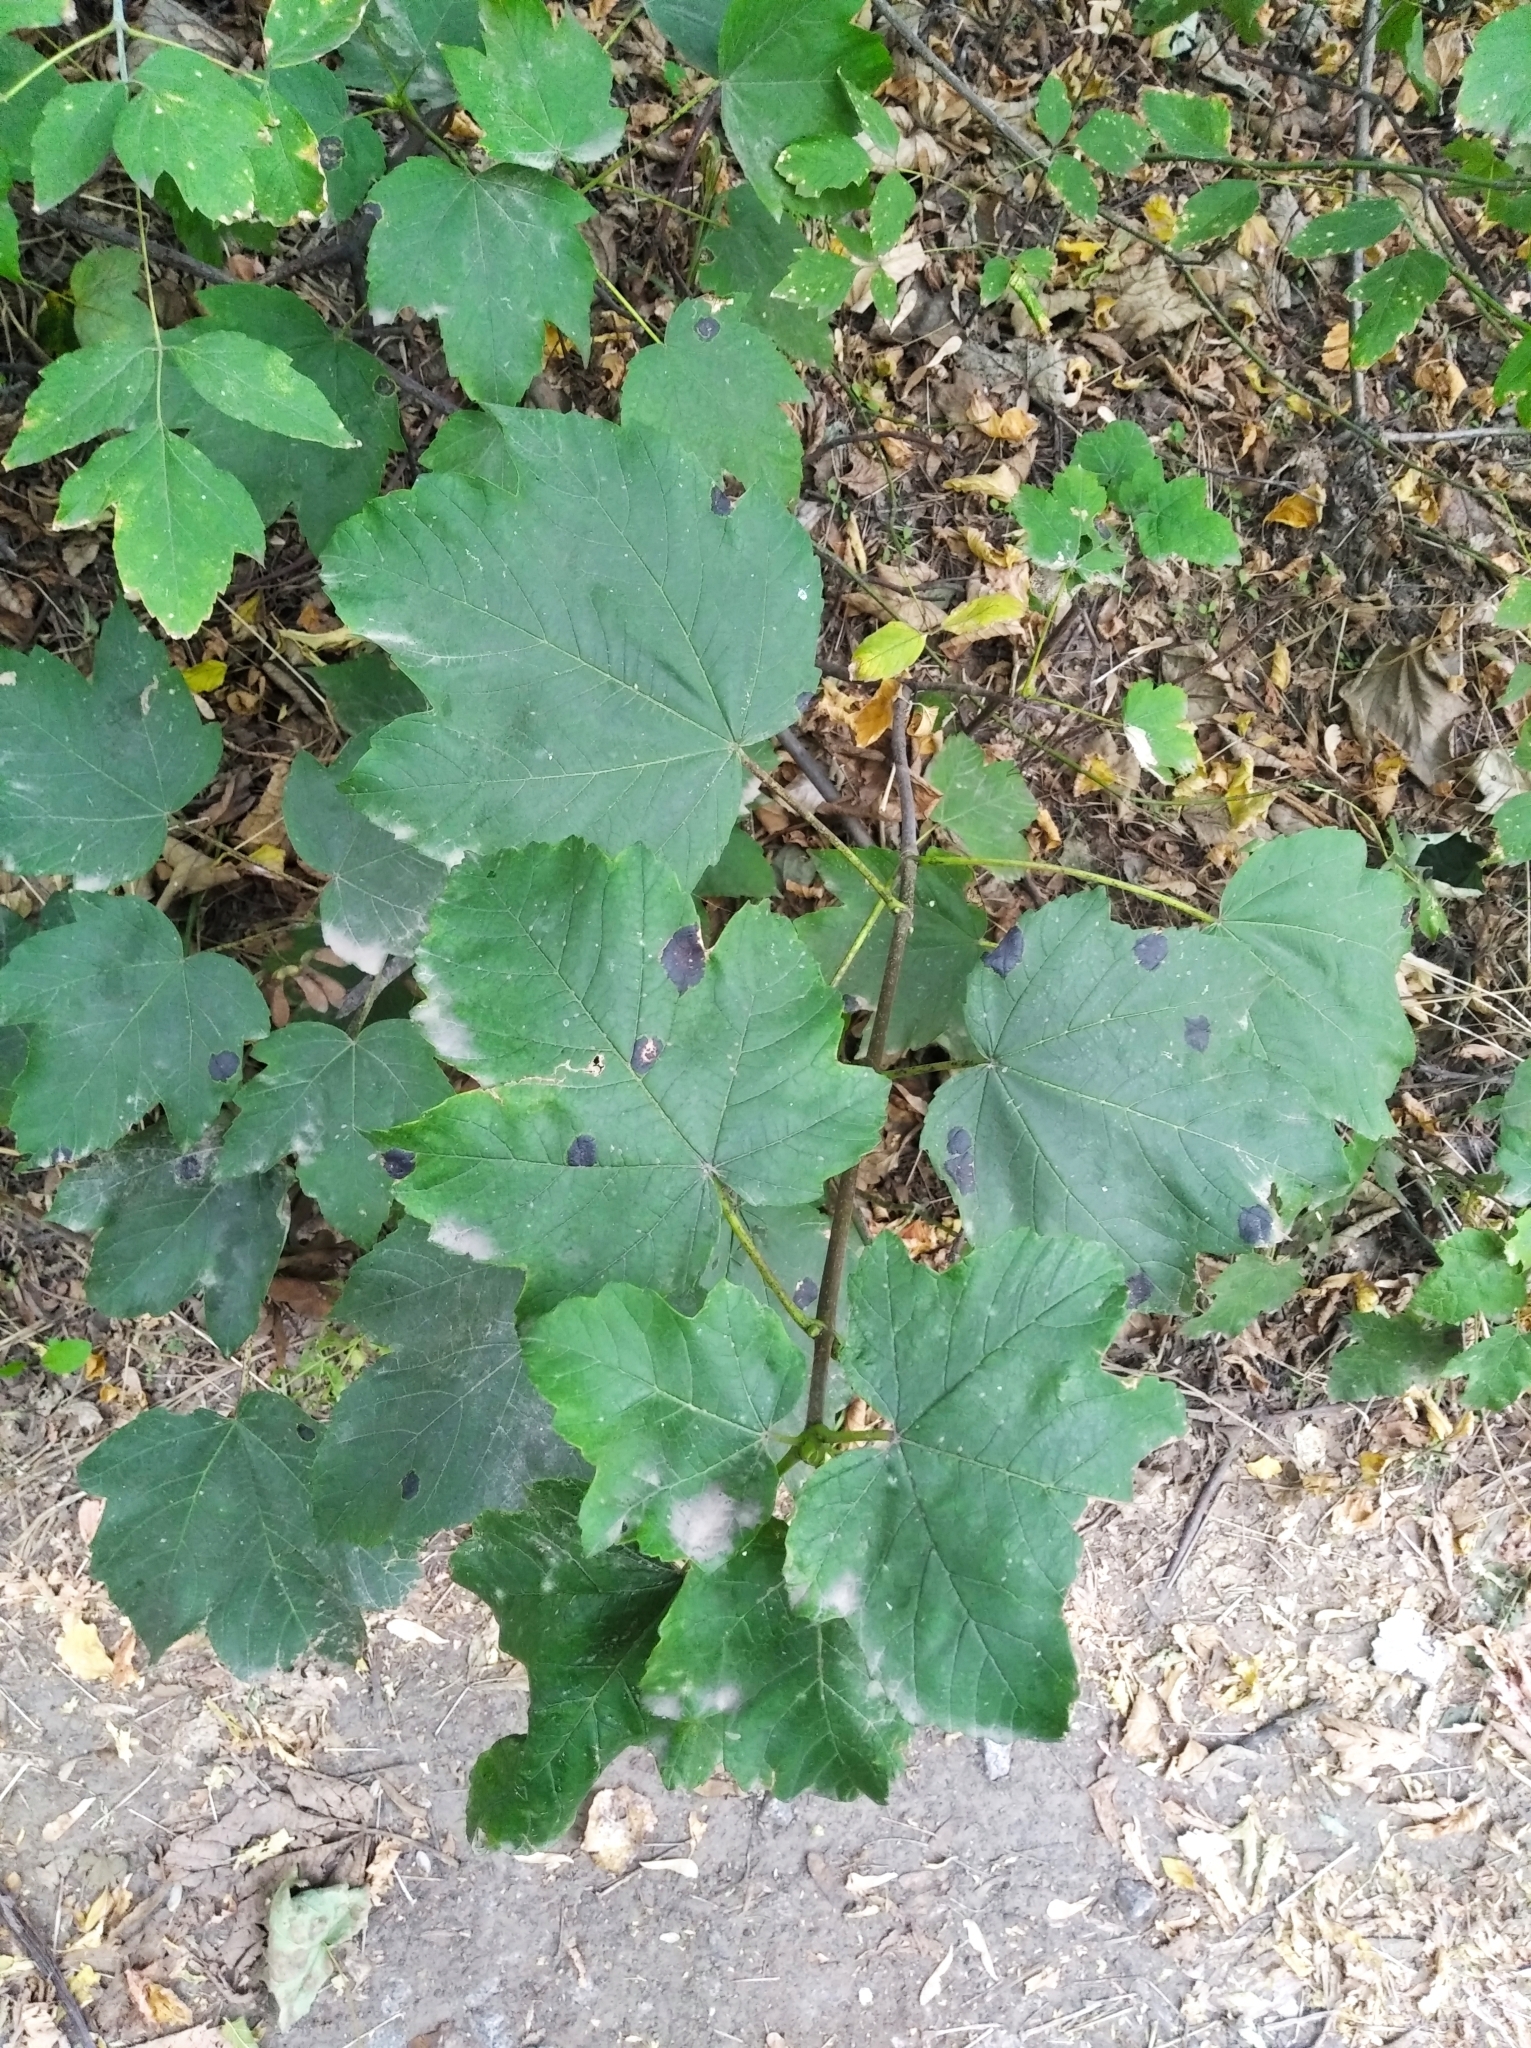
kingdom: Plantae
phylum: Tracheophyta
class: Magnoliopsida
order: Sapindales
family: Sapindaceae
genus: Acer
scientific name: Acer pseudoplatanus
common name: Sycamore
